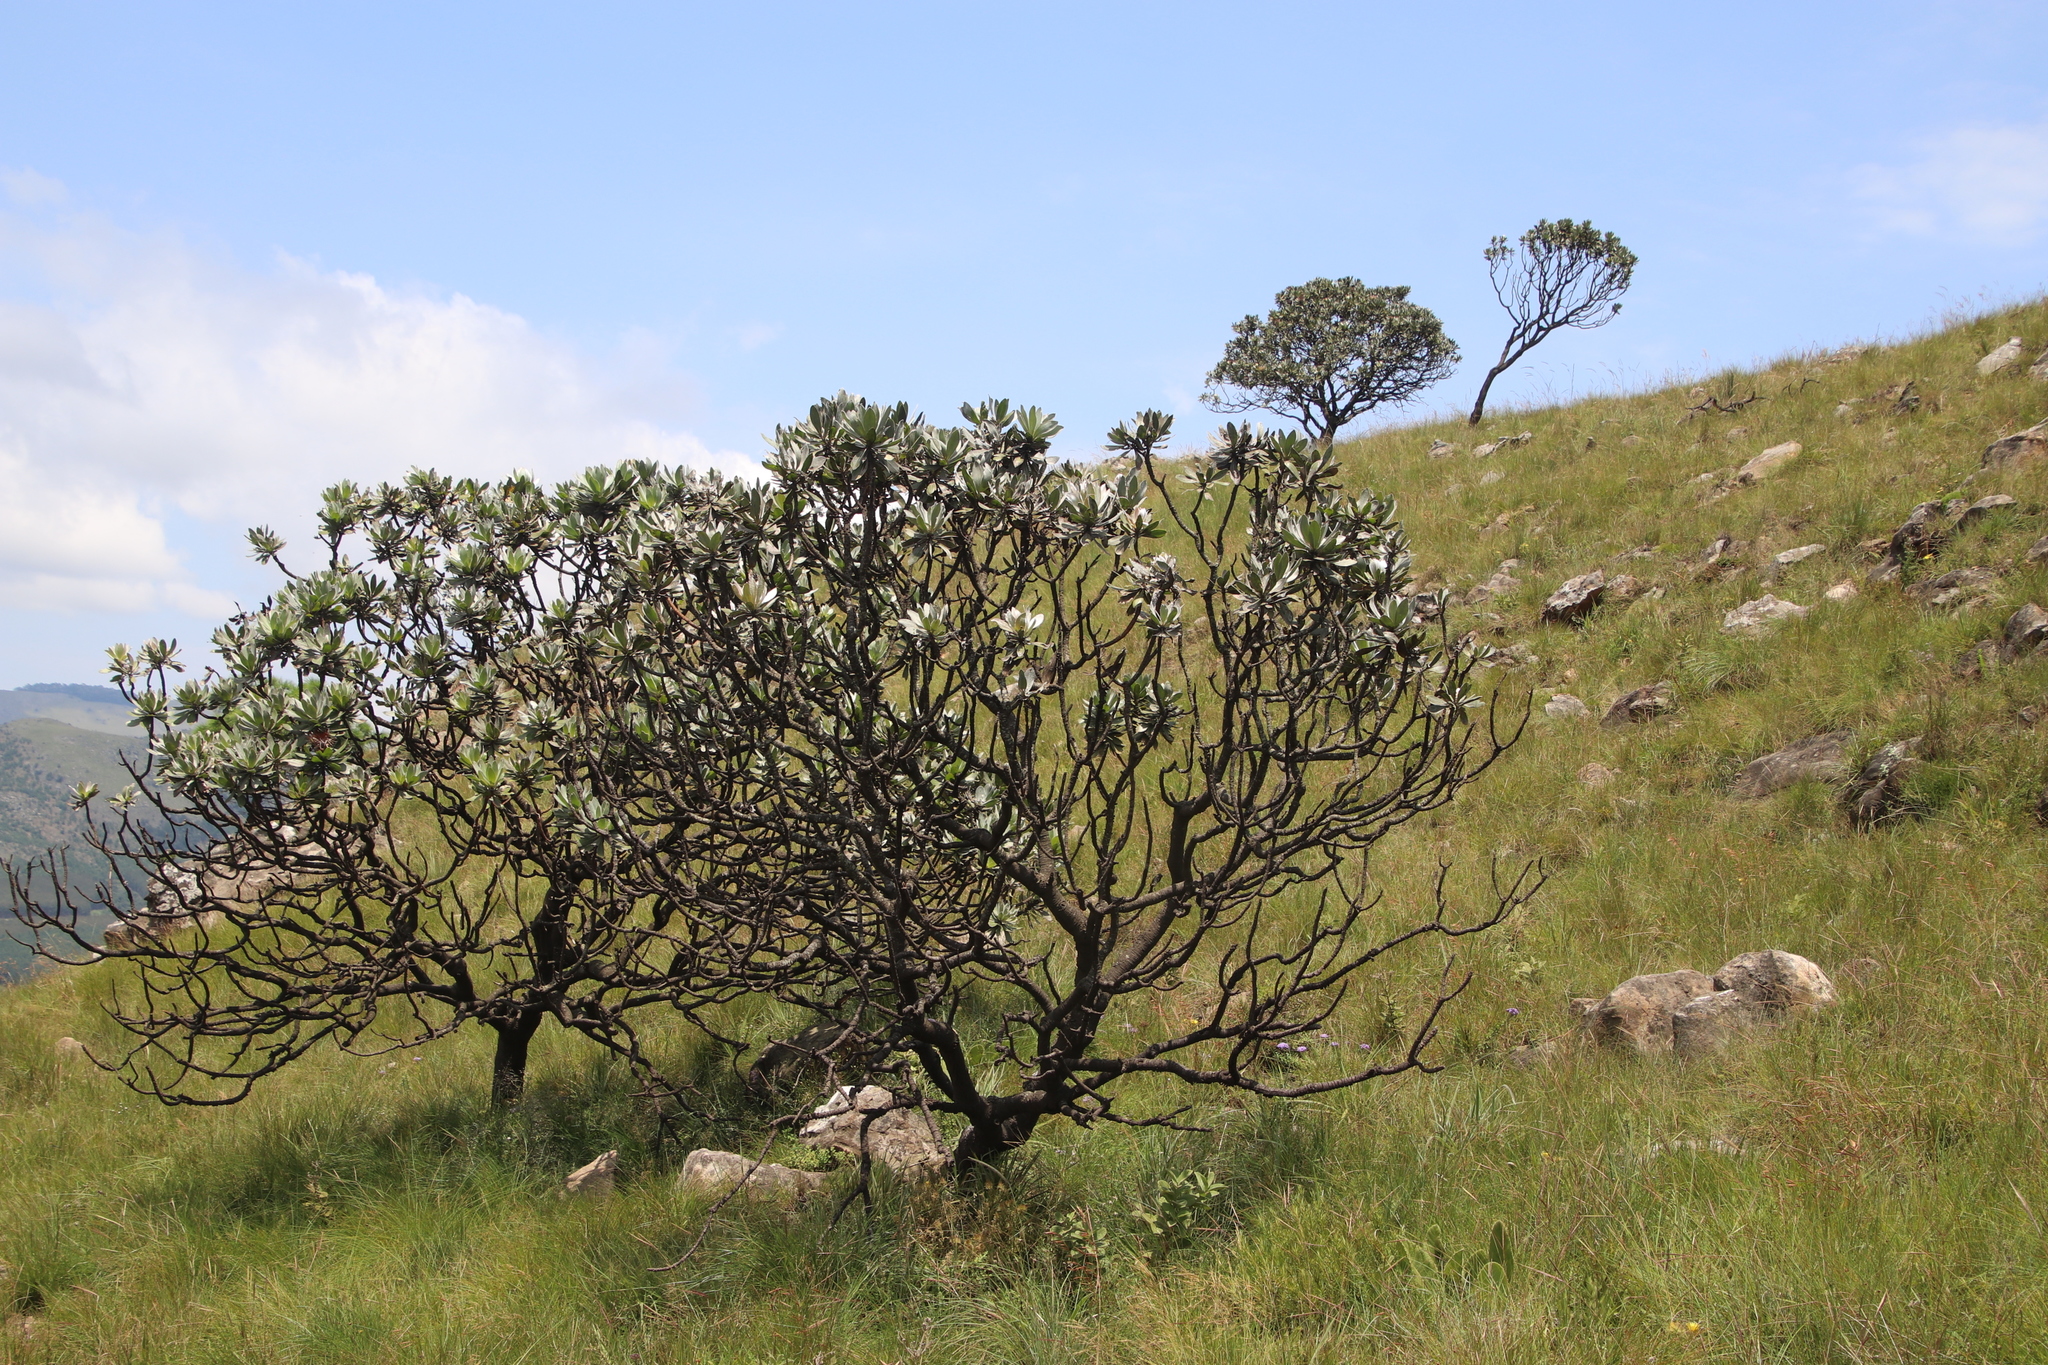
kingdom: Plantae
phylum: Tracheophyta
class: Magnoliopsida
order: Proteales
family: Proteaceae
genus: Protea
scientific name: Protea roupelliae
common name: Silver sugarbush
